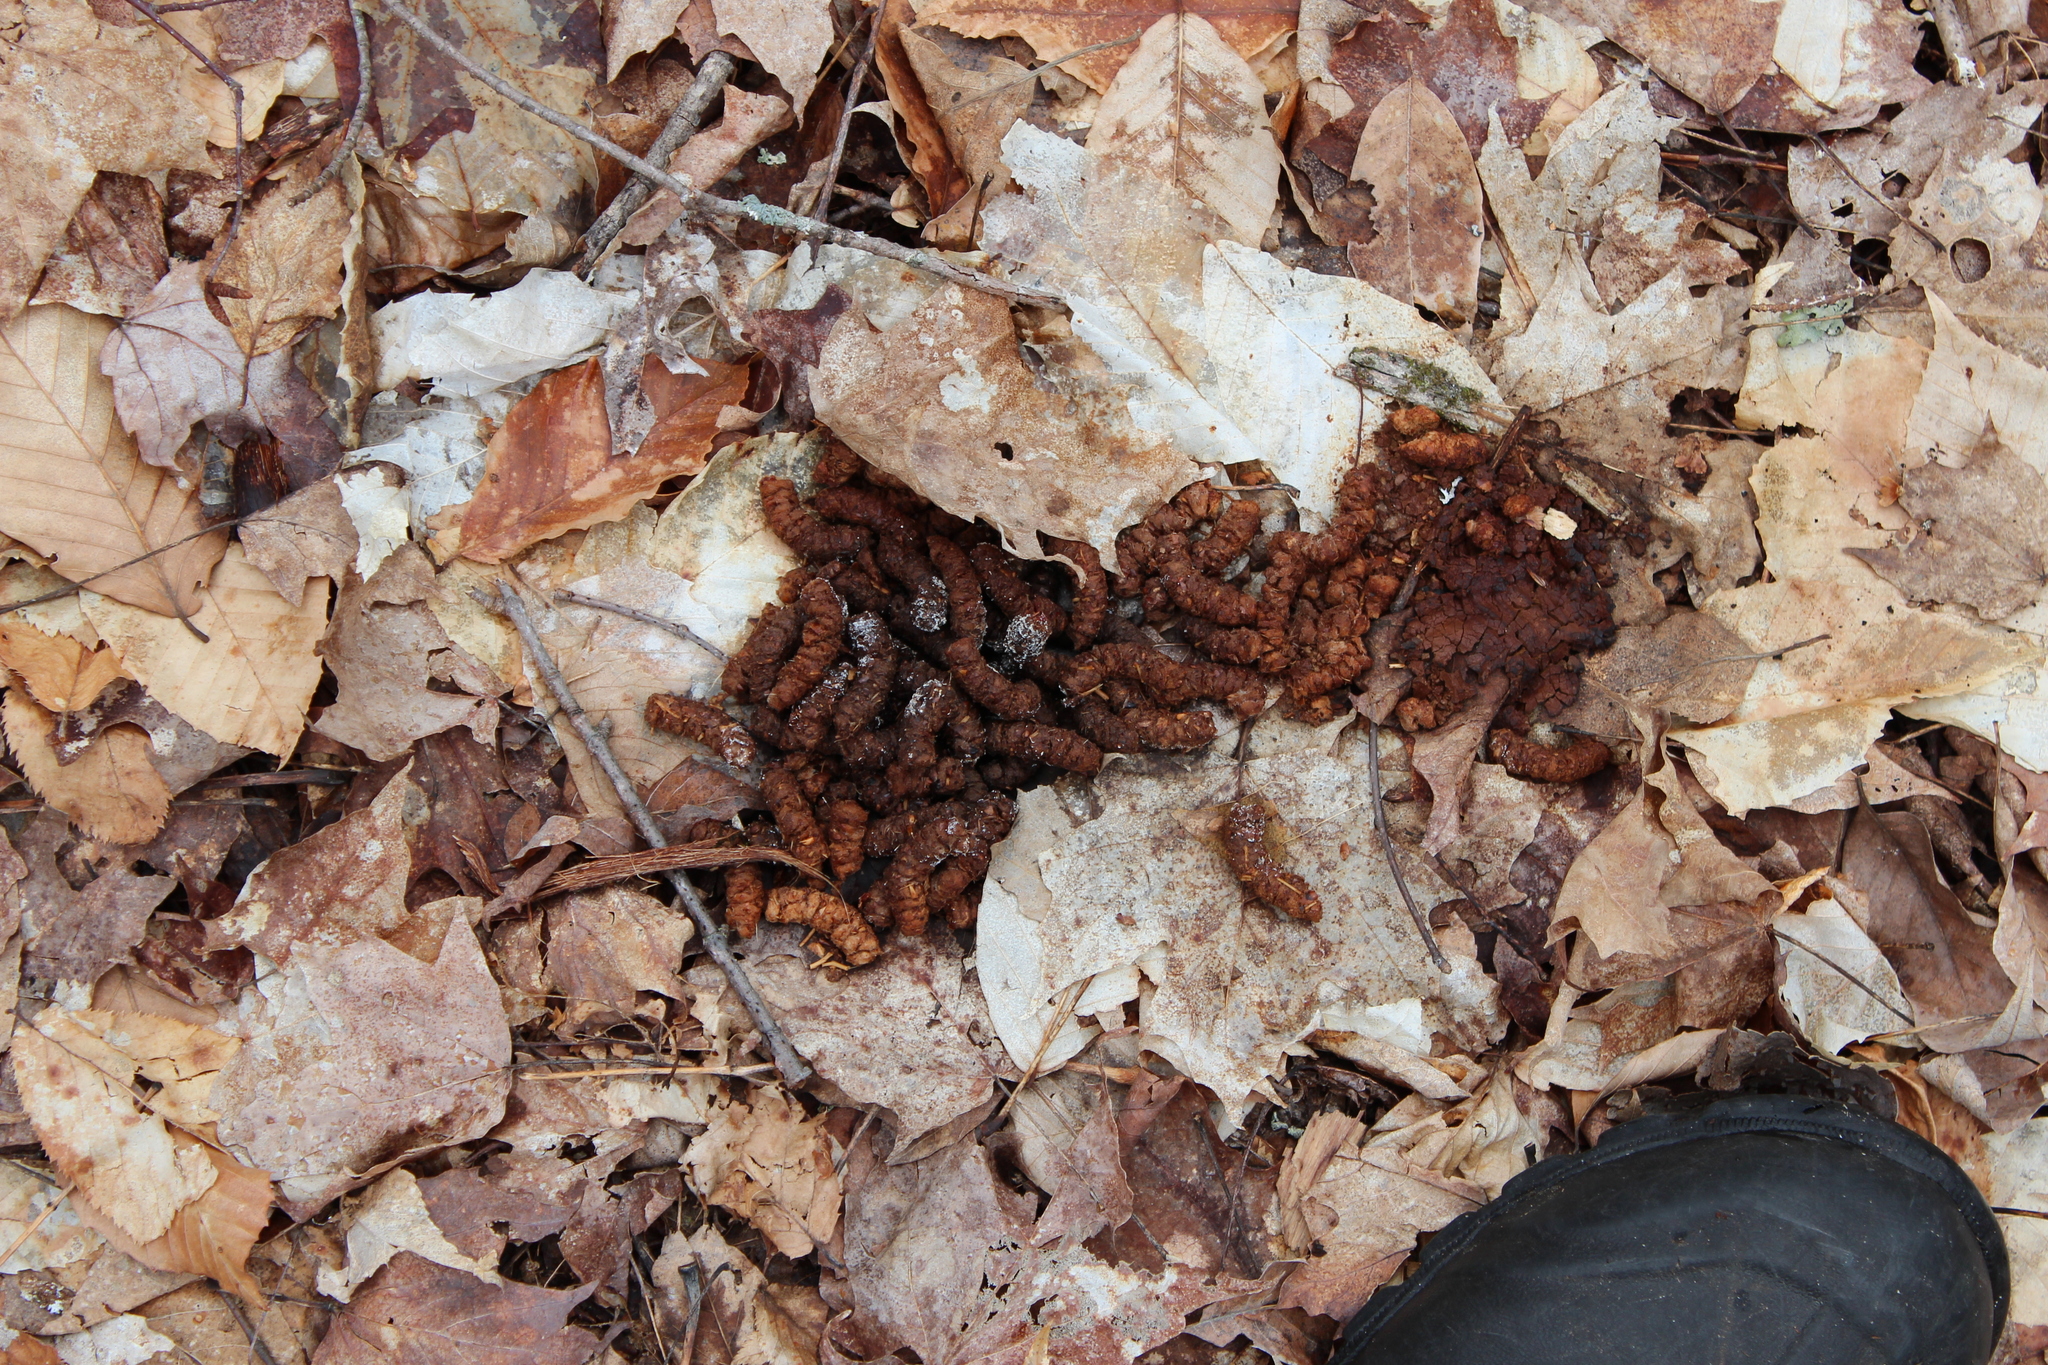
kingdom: Animalia
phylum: Chordata
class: Aves
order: Galliformes
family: Phasianidae
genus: Bonasa
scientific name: Bonasa umbellus
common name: Ruffed grouse
